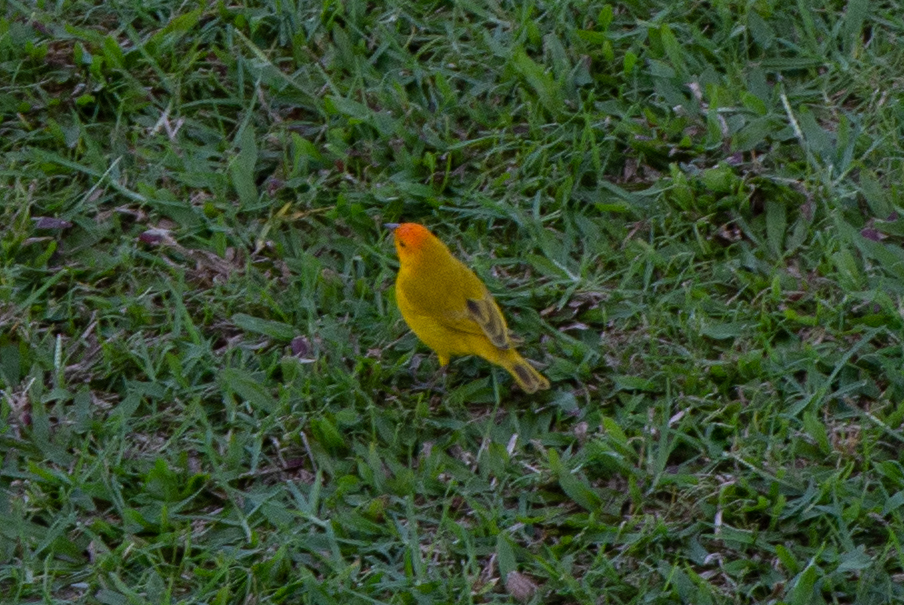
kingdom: Animalia
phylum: Chordata
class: Aves
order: Passeriformes
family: Thraupidae
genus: Sicalis
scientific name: Sicalis flaveola
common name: Saffron finch
